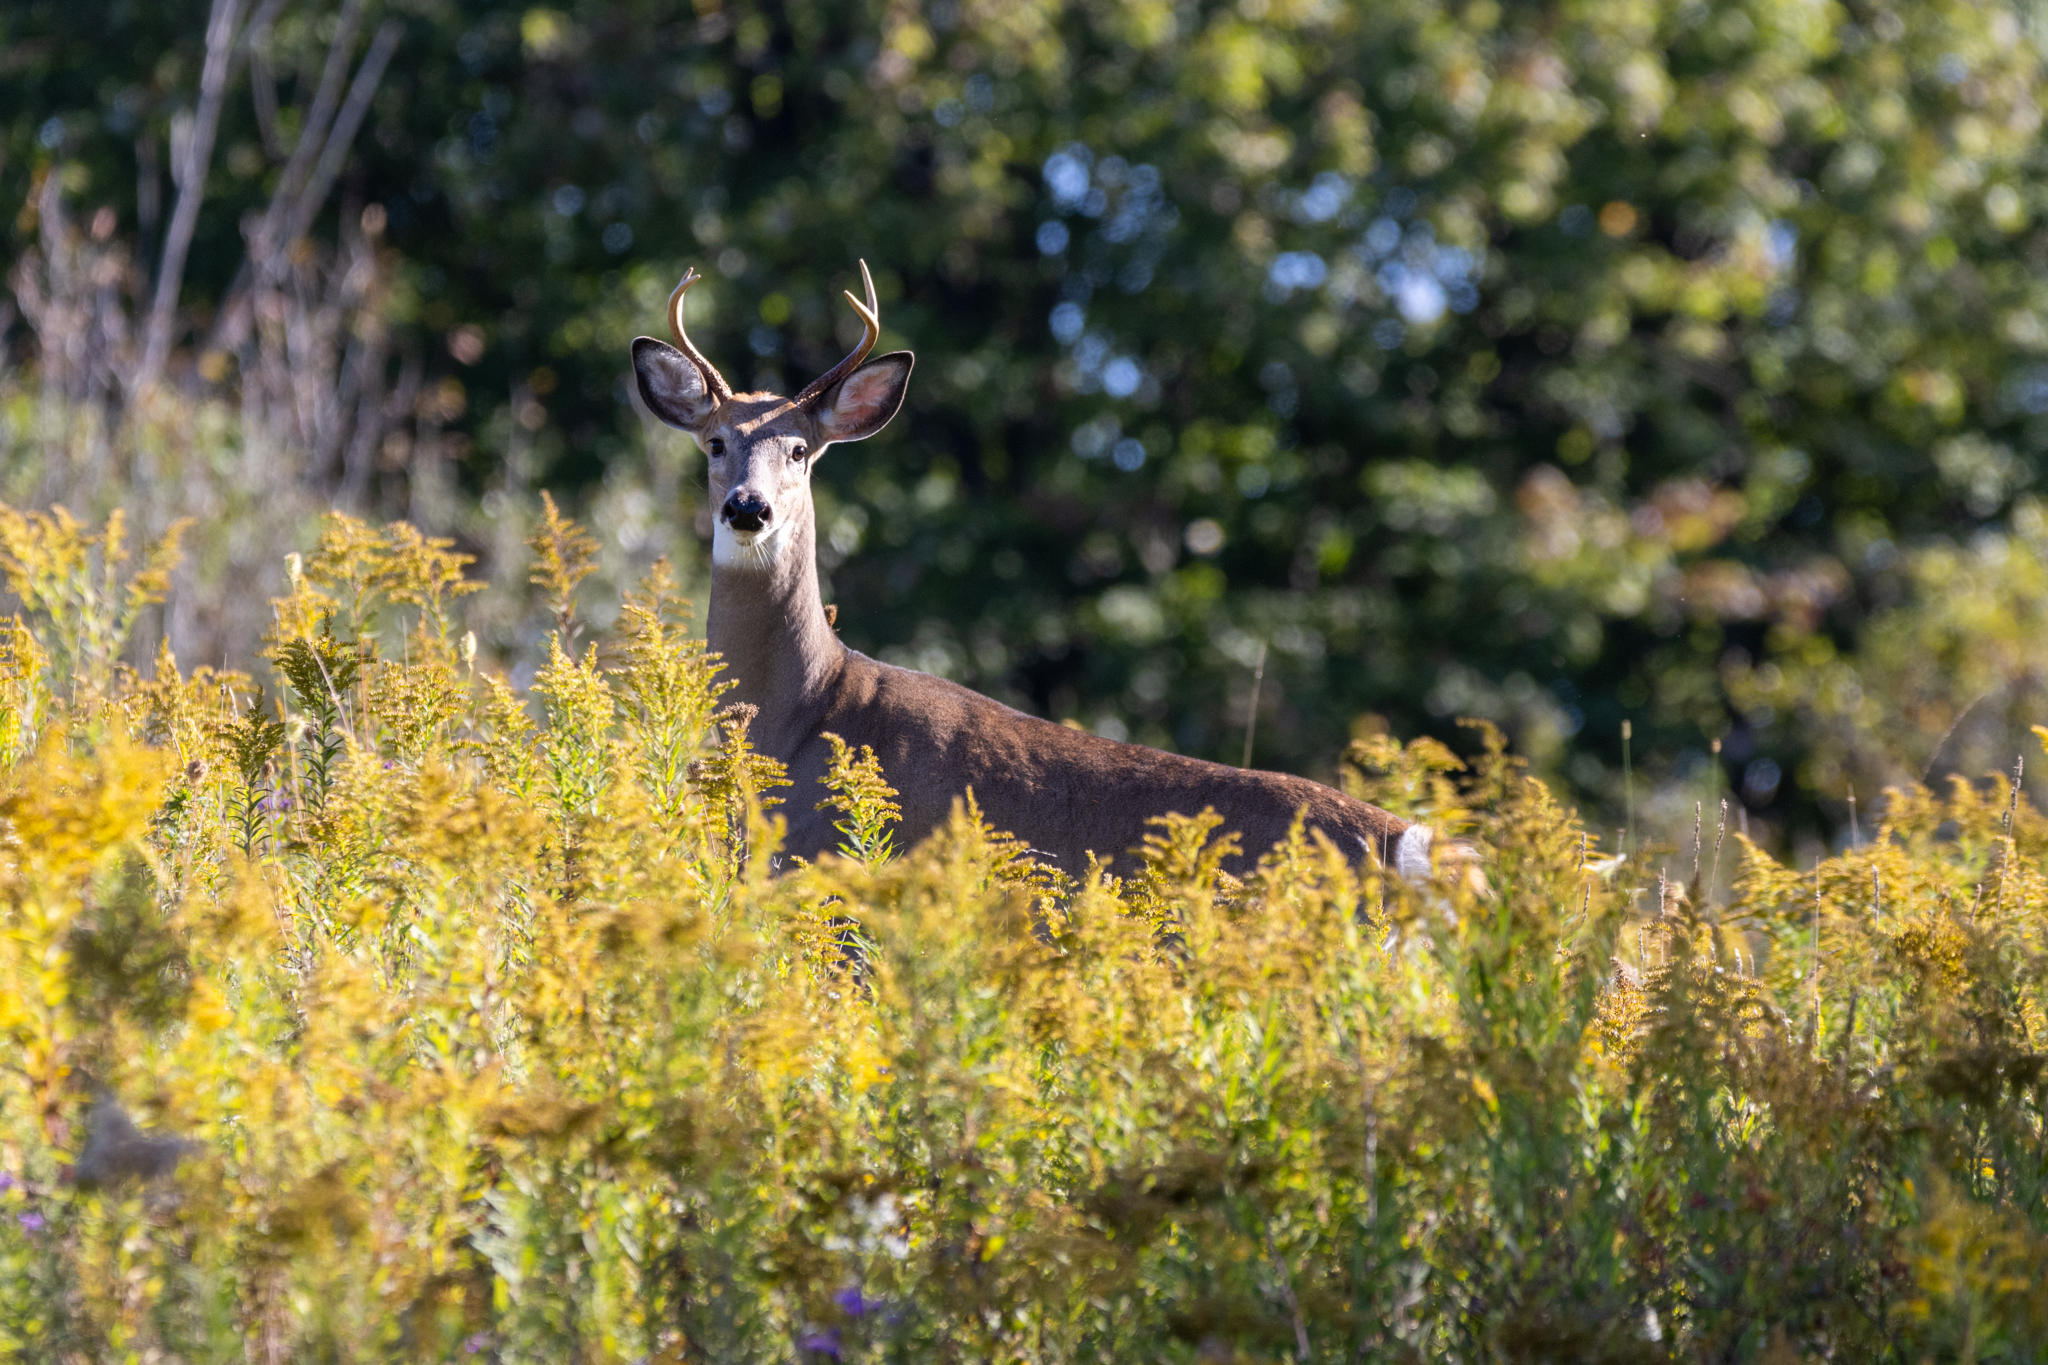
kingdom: Animalia
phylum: Chordata
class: Mammalia
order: Artiodactyla
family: Cervidae
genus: Odocoileus
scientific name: Odocoileus virginianus
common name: White-tailed deer
